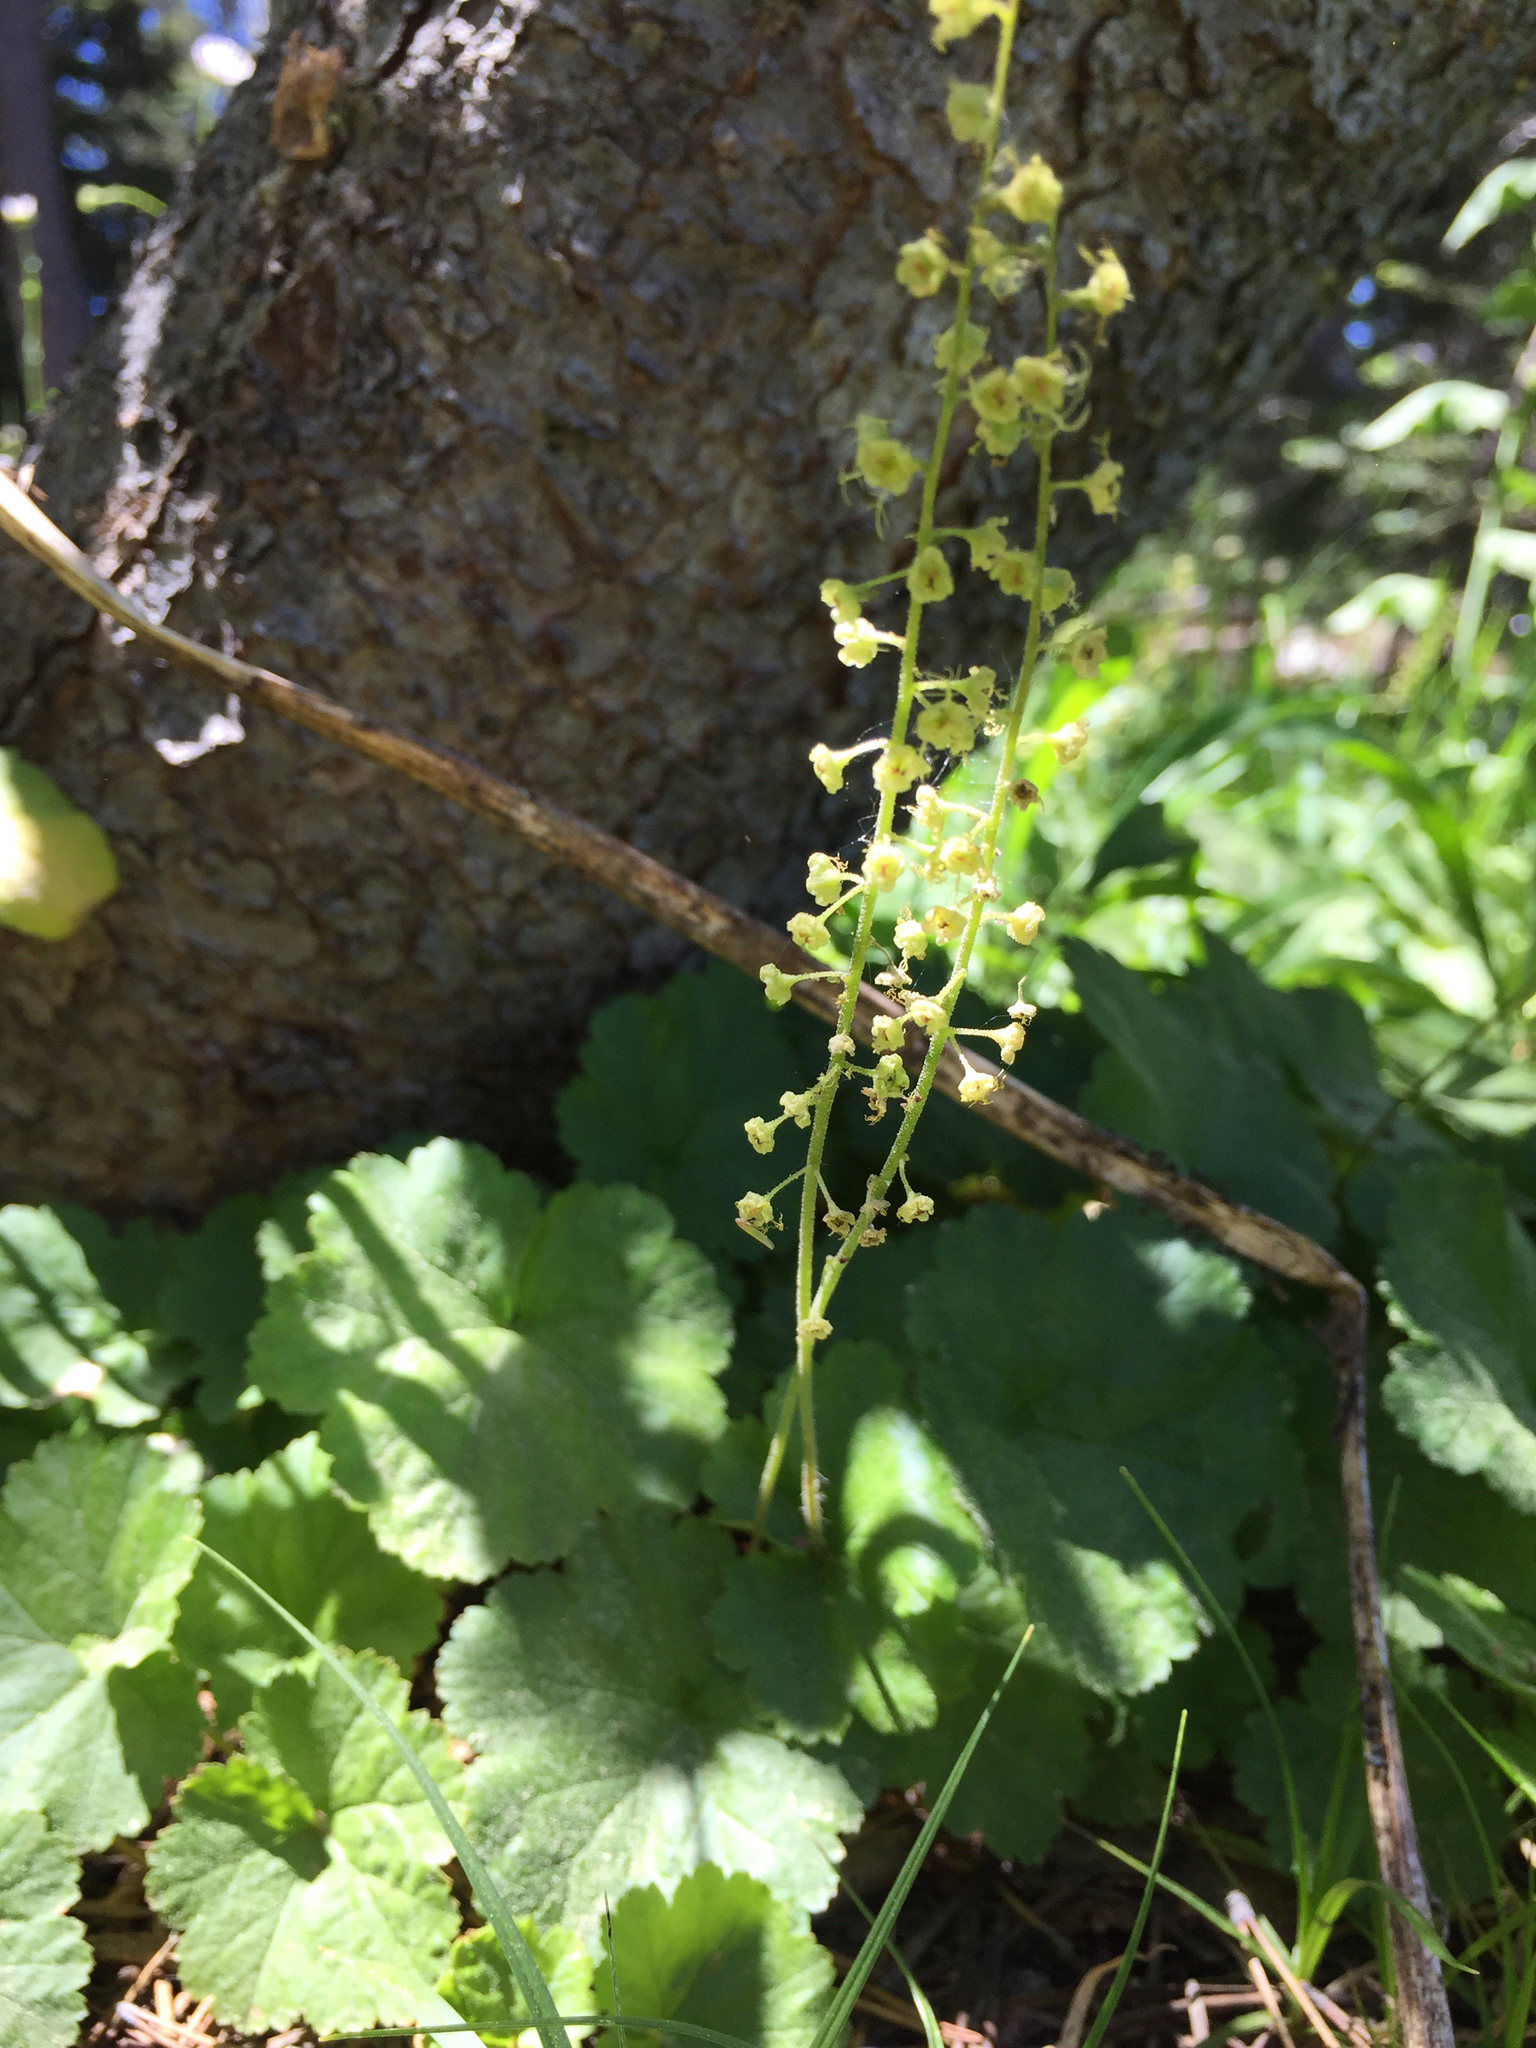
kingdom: Plantae
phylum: Tracheophyta
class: Magnoliopsida
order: Saxifragales
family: Saxifragaceae
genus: Brewerimitella
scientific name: Brewerimitella breweri
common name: Brewer's bishop's-cap
